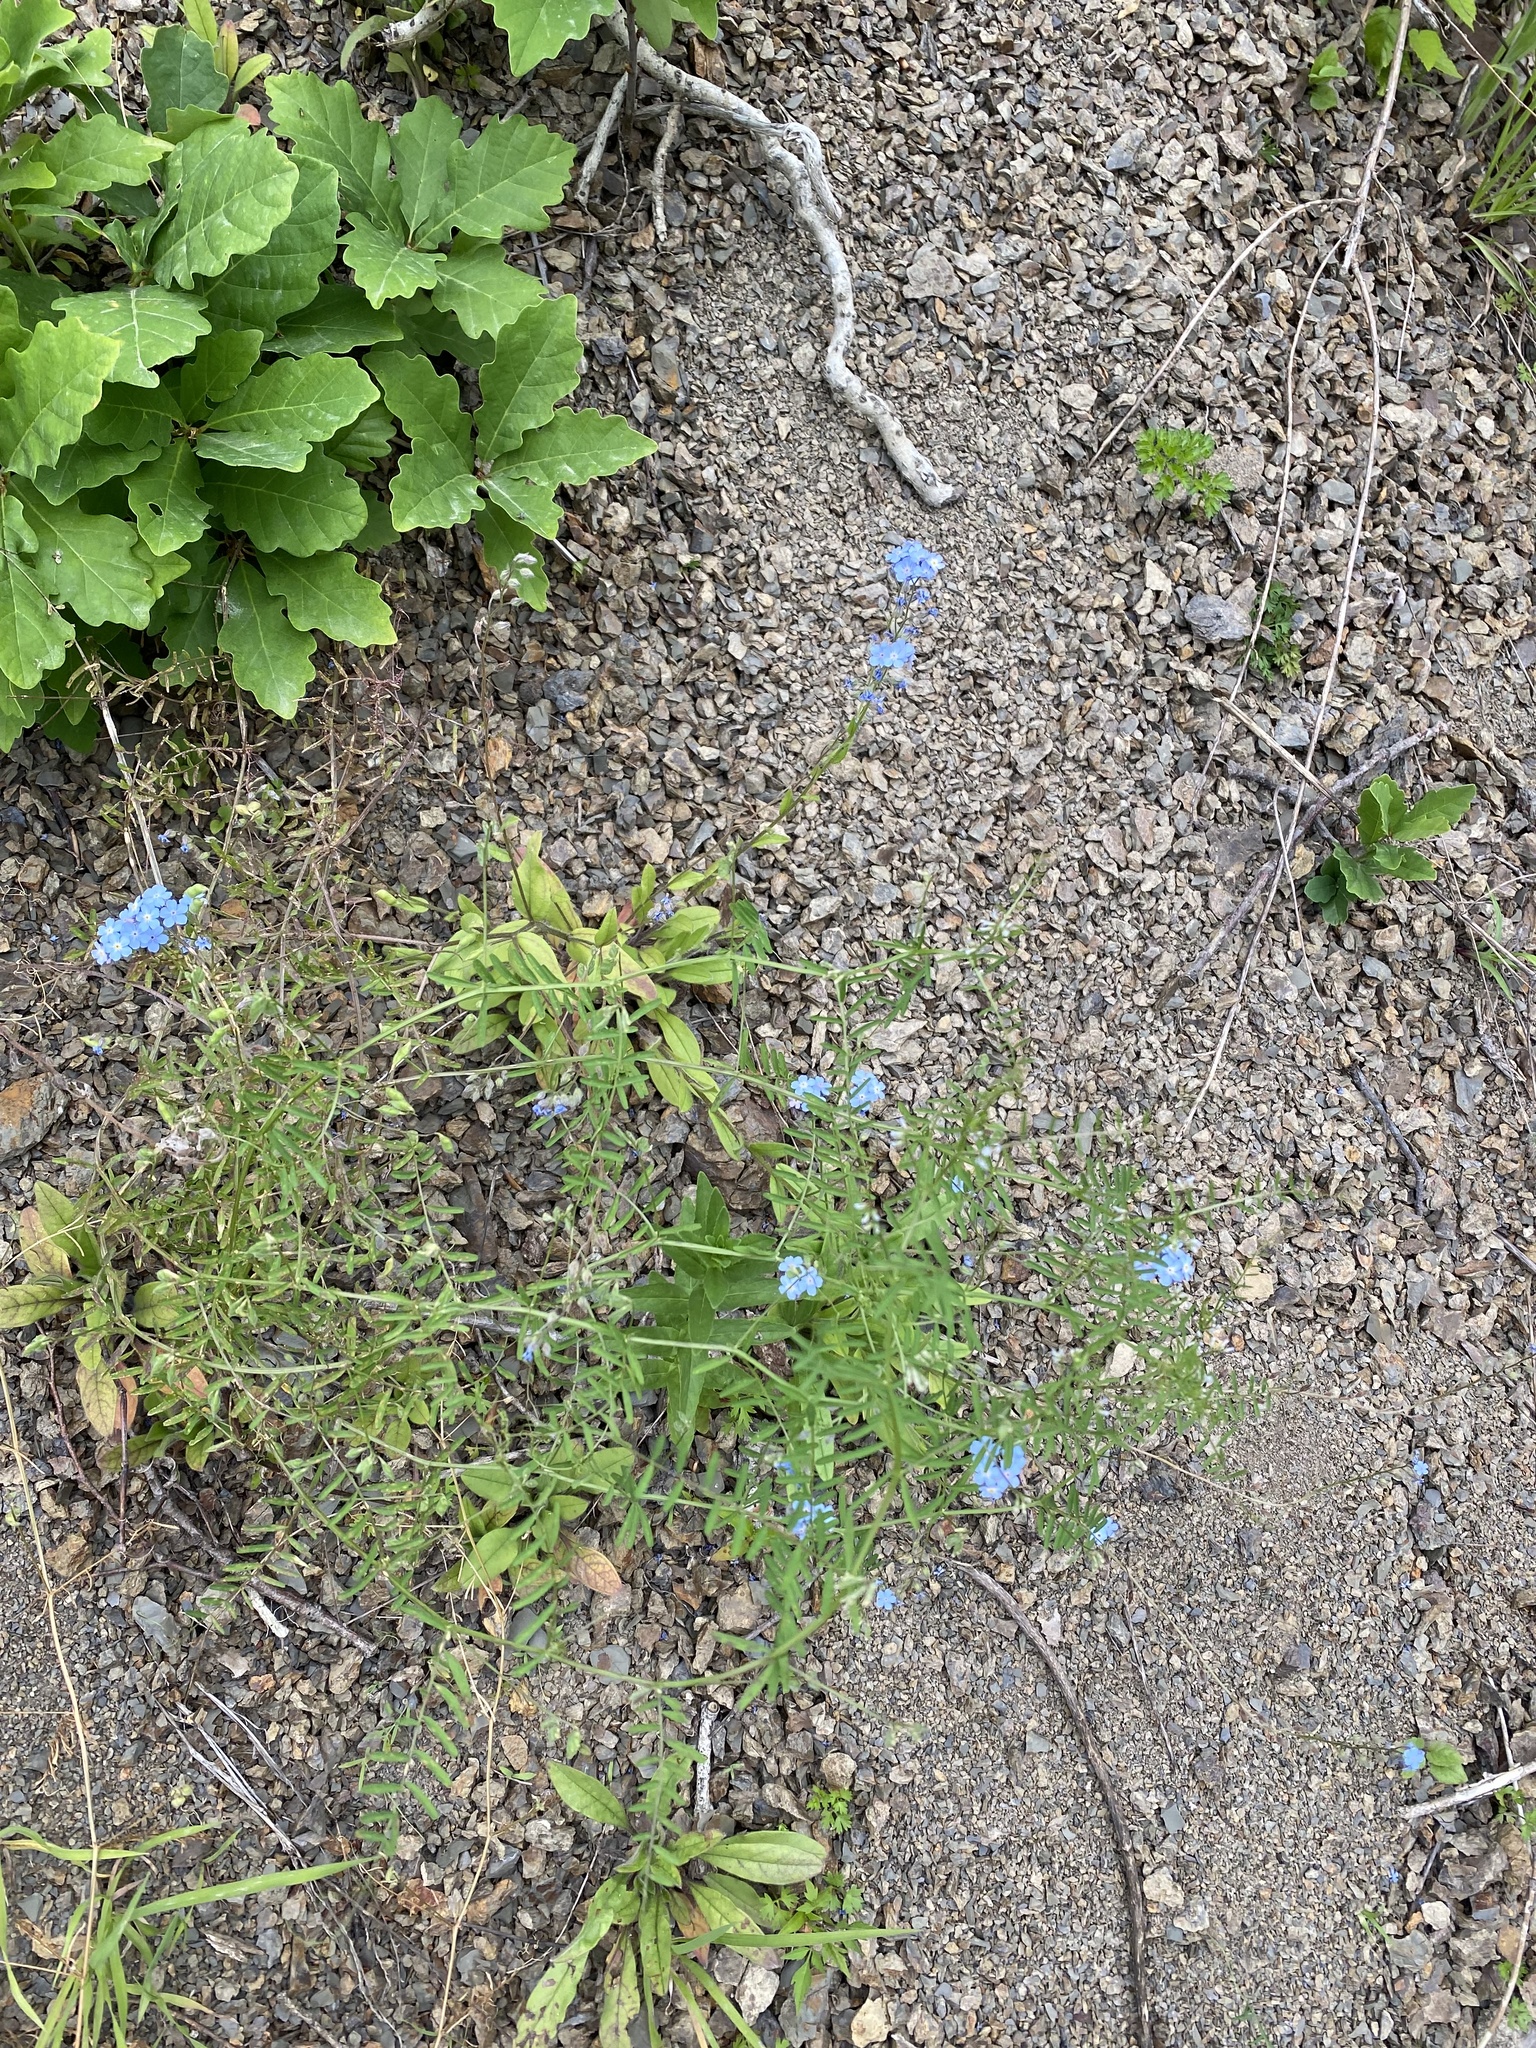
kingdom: Plantae
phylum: Tracheophyta
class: Magnoliopsida
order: Boraginales
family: Boraginaceae
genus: Myosotis
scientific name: Myosotis
